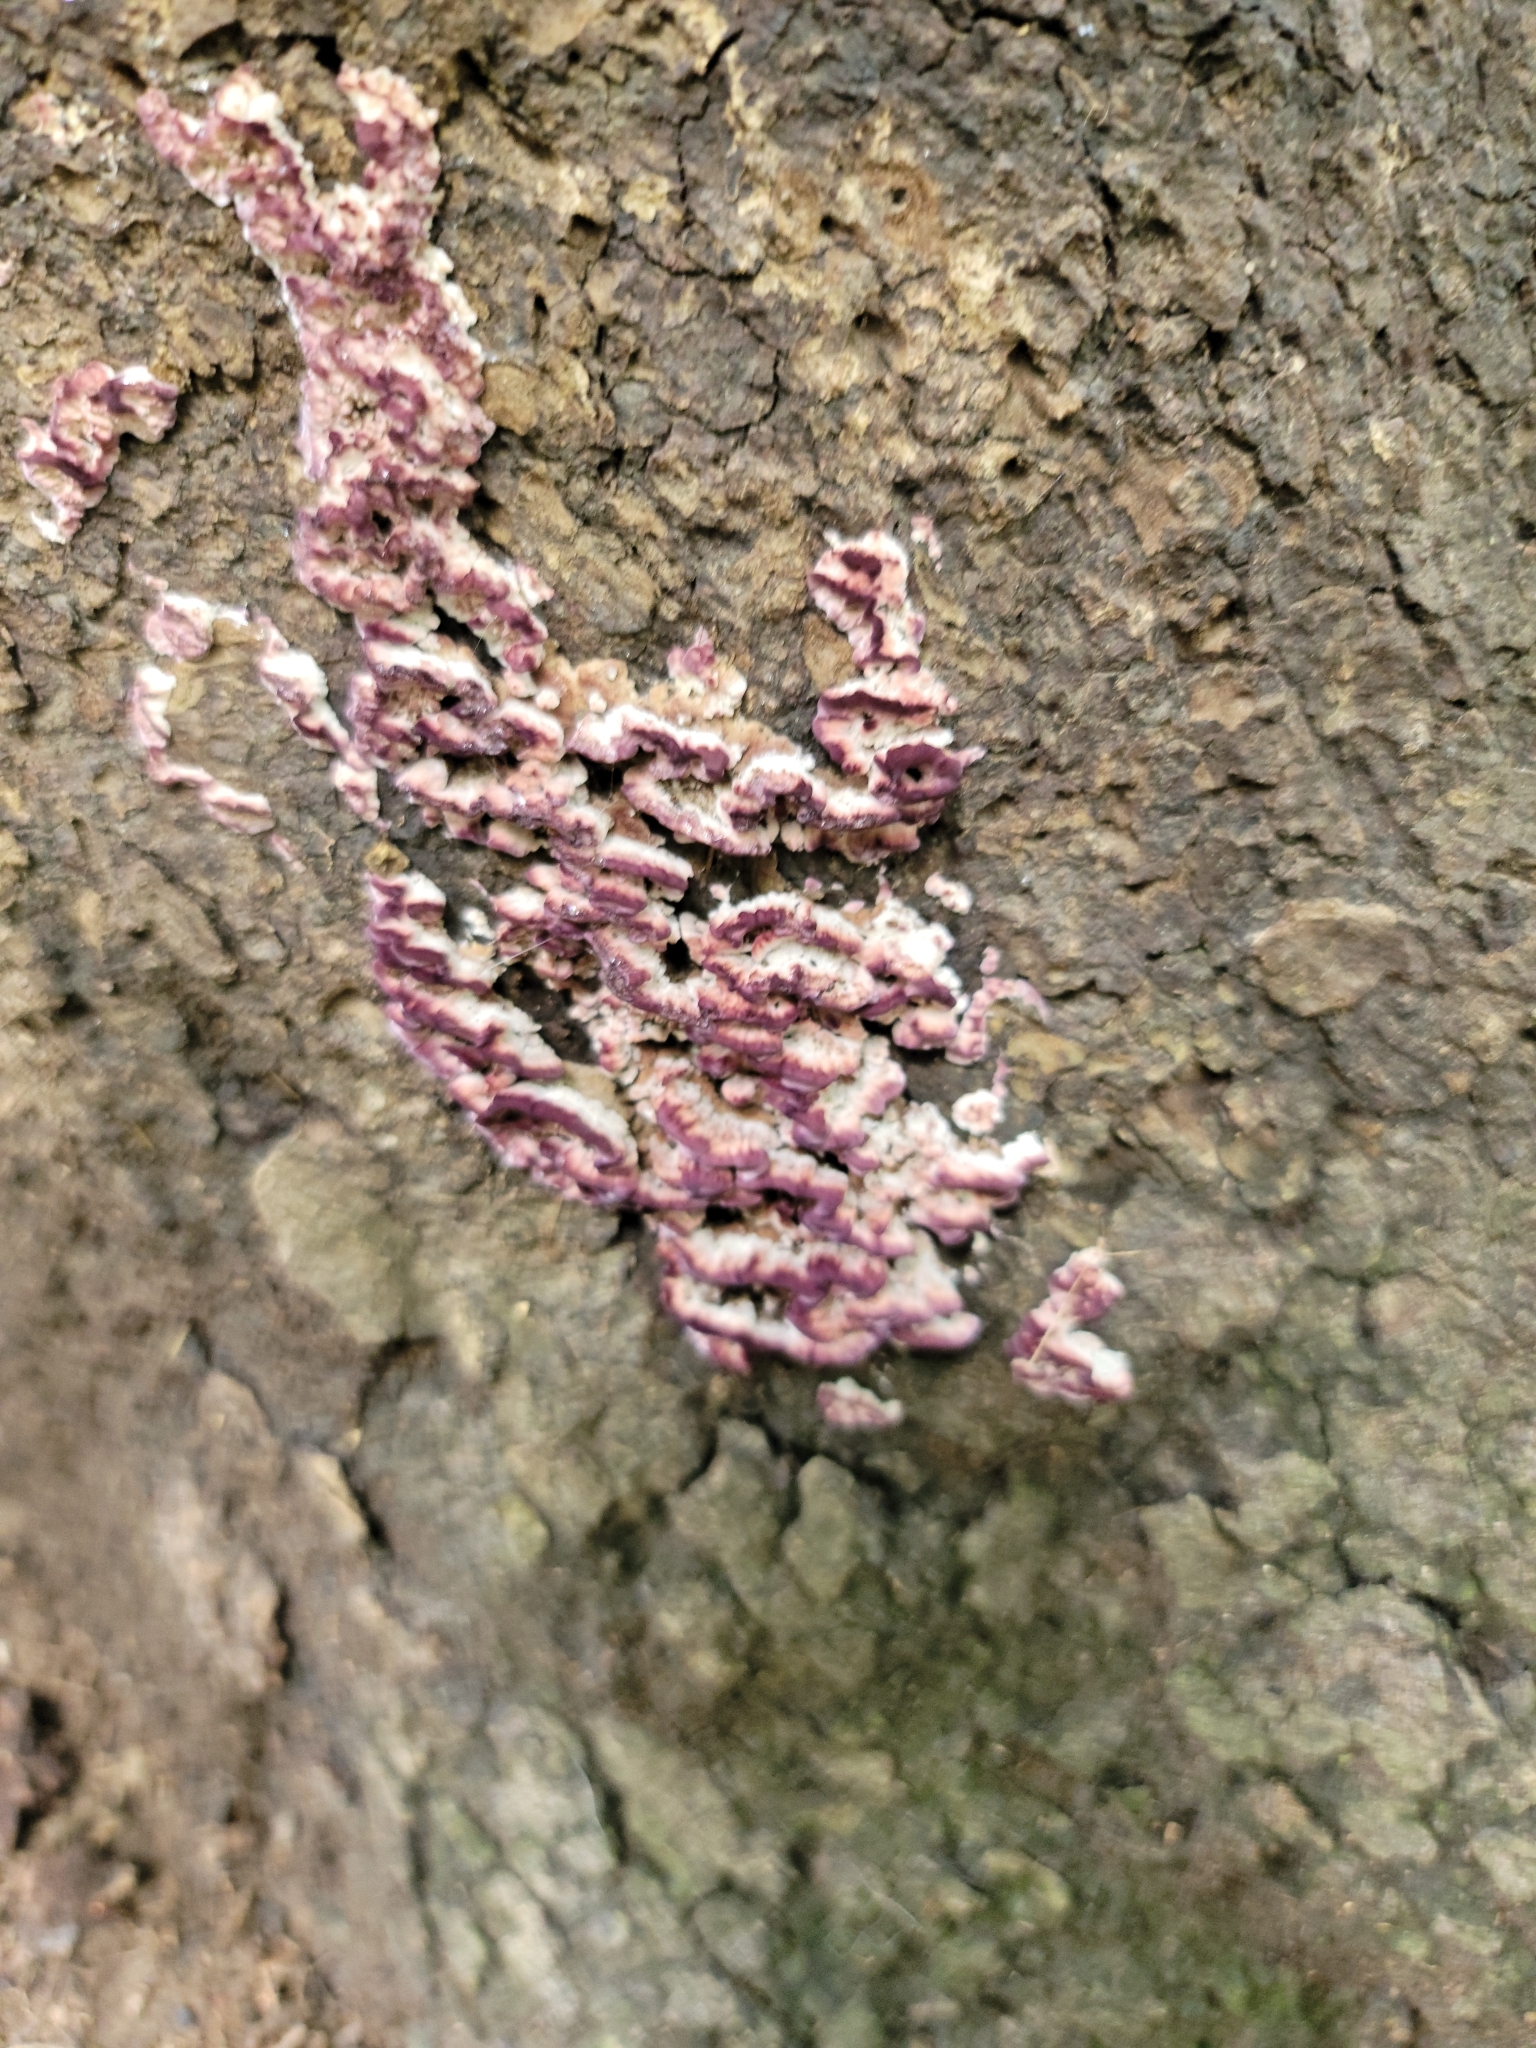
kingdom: Fungi
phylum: Basidiomycota
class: Agaricomycetes
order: Hymenochaetales
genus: Trichaptum
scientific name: Trichaptum abietinum
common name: Purplepore bracket
